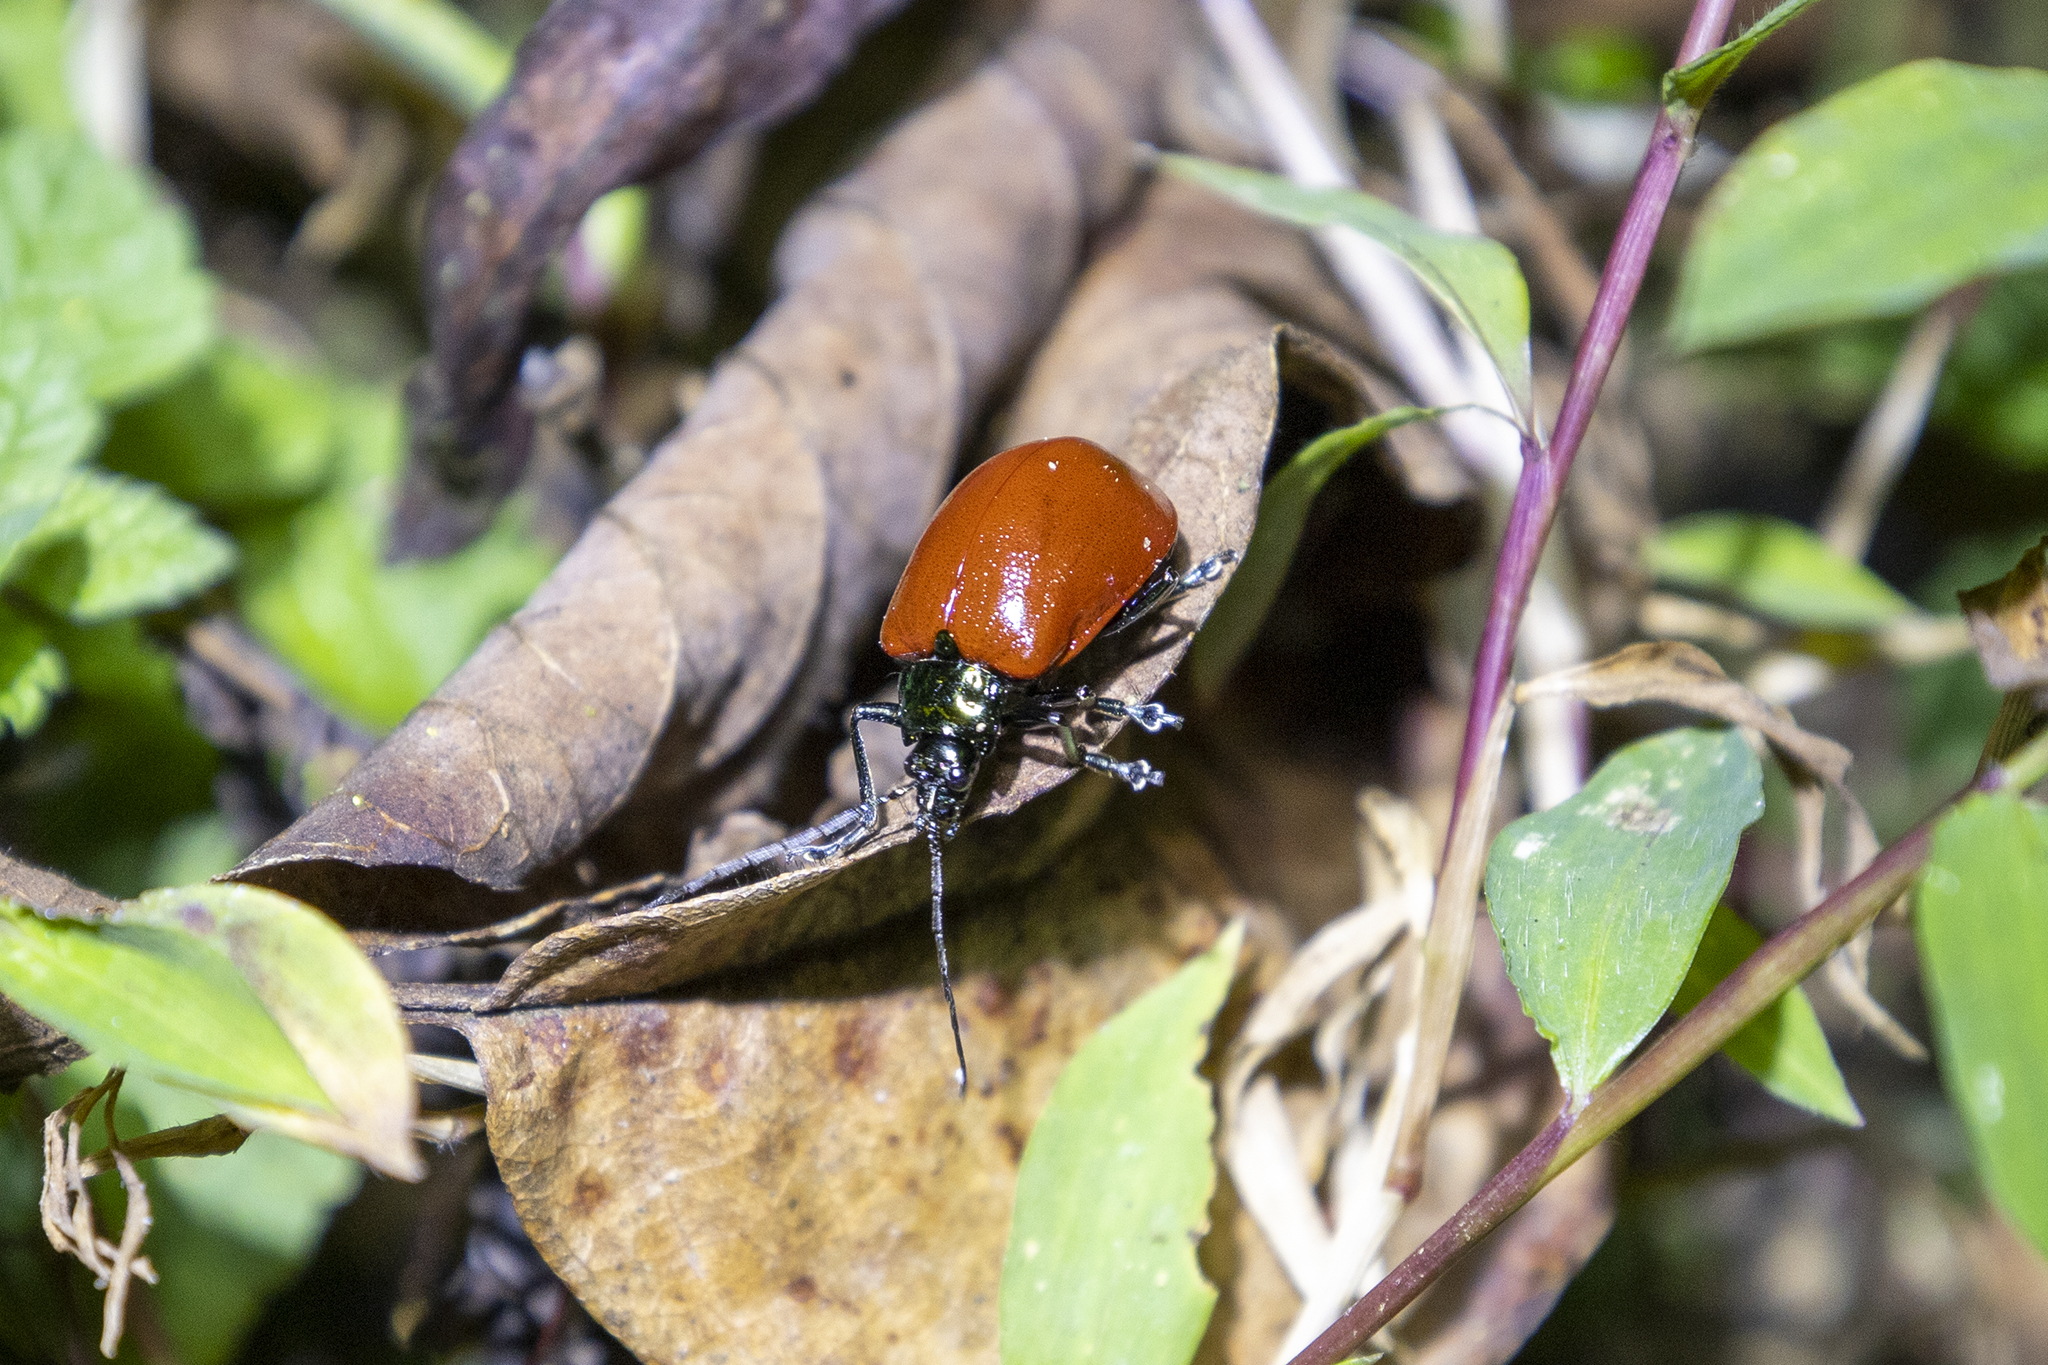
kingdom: Animalia
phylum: Arthropoda
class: Insecta
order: Coleoptera
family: Chrysomelidae
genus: Meristata
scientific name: Meristata
